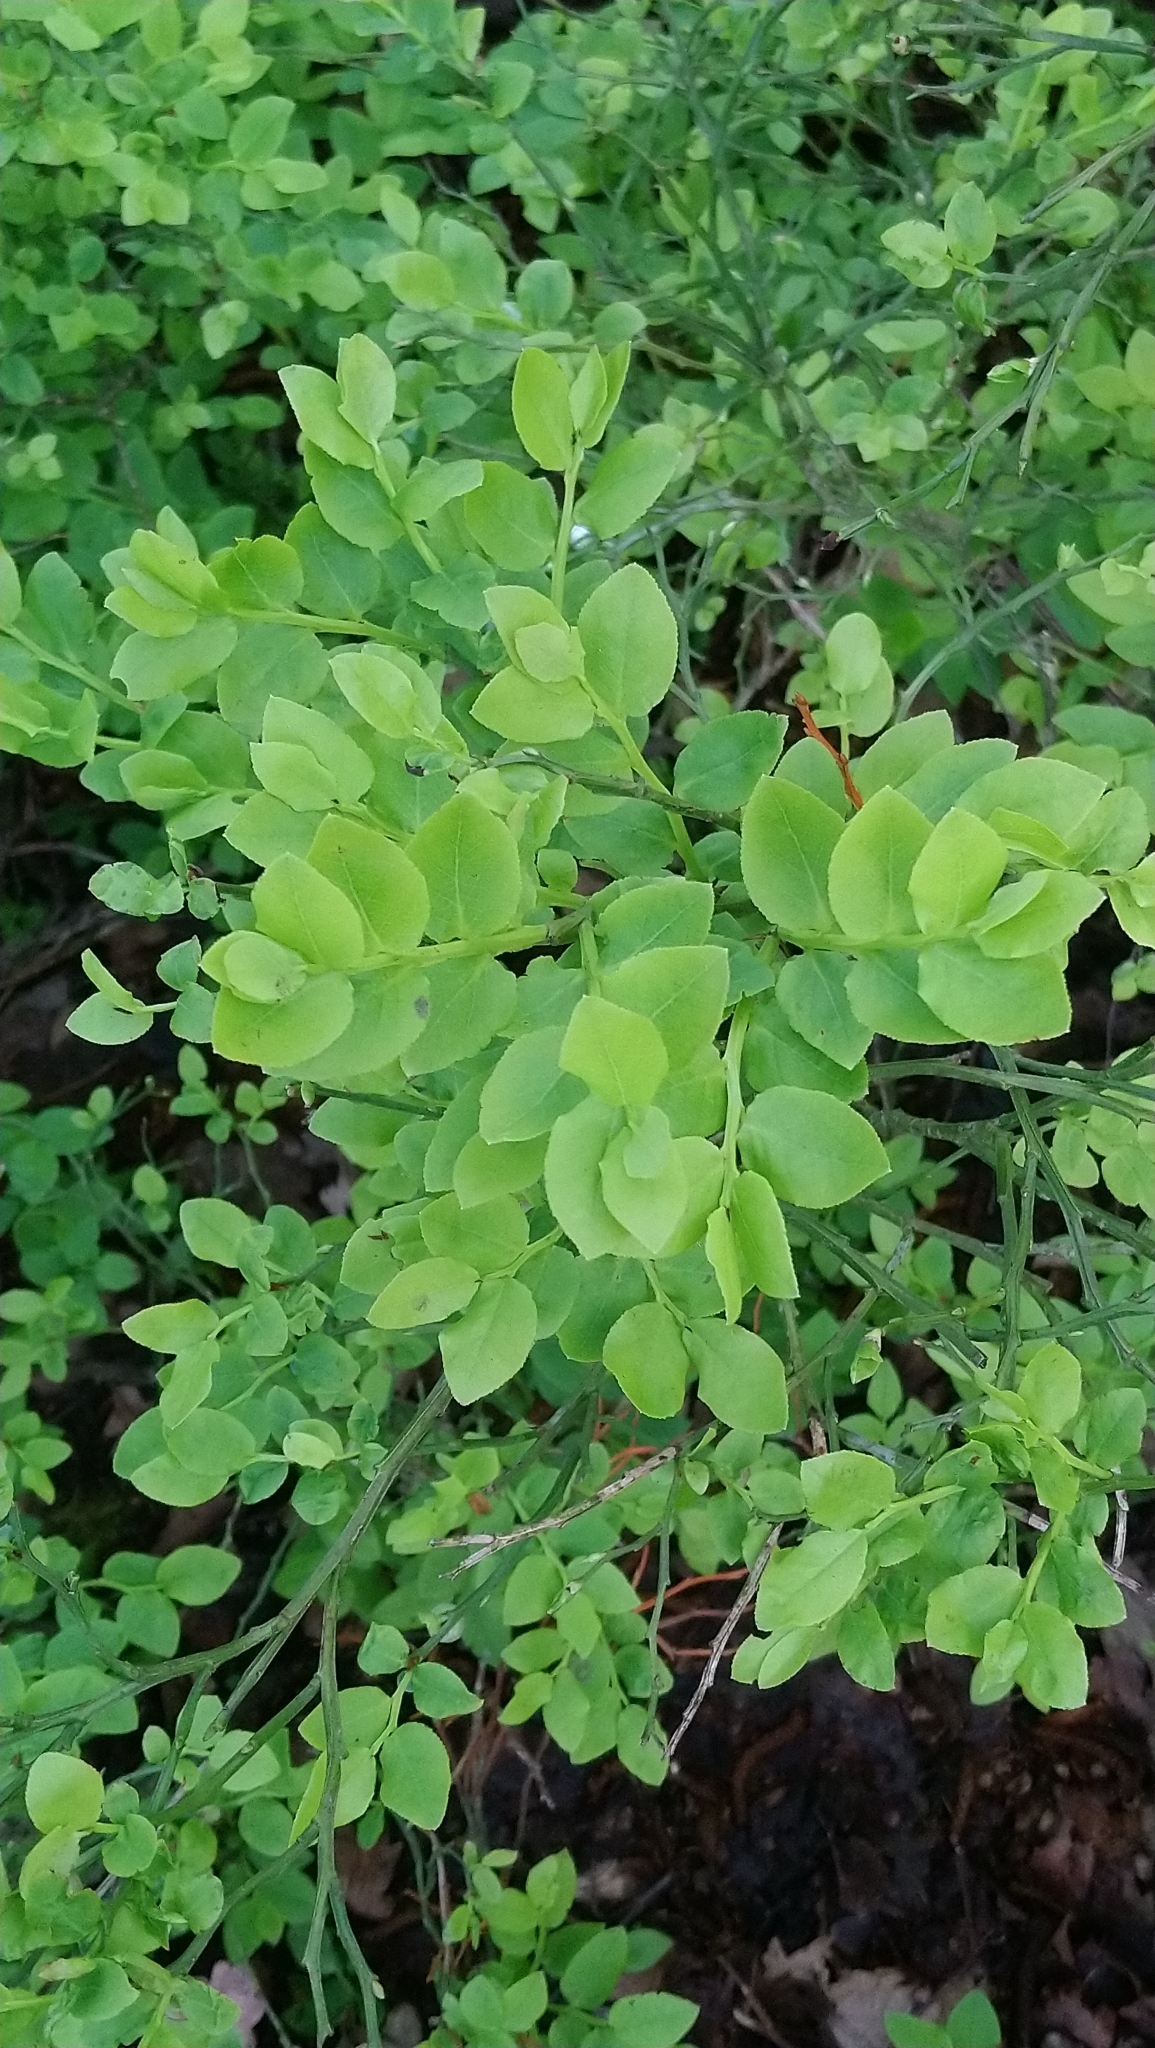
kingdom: Plantae
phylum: Tracheophyta
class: Magnoliopsida
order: Ericales
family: Ericaceae
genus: Vaccinium
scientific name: Vaccinium myrtillus
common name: Bilberry
